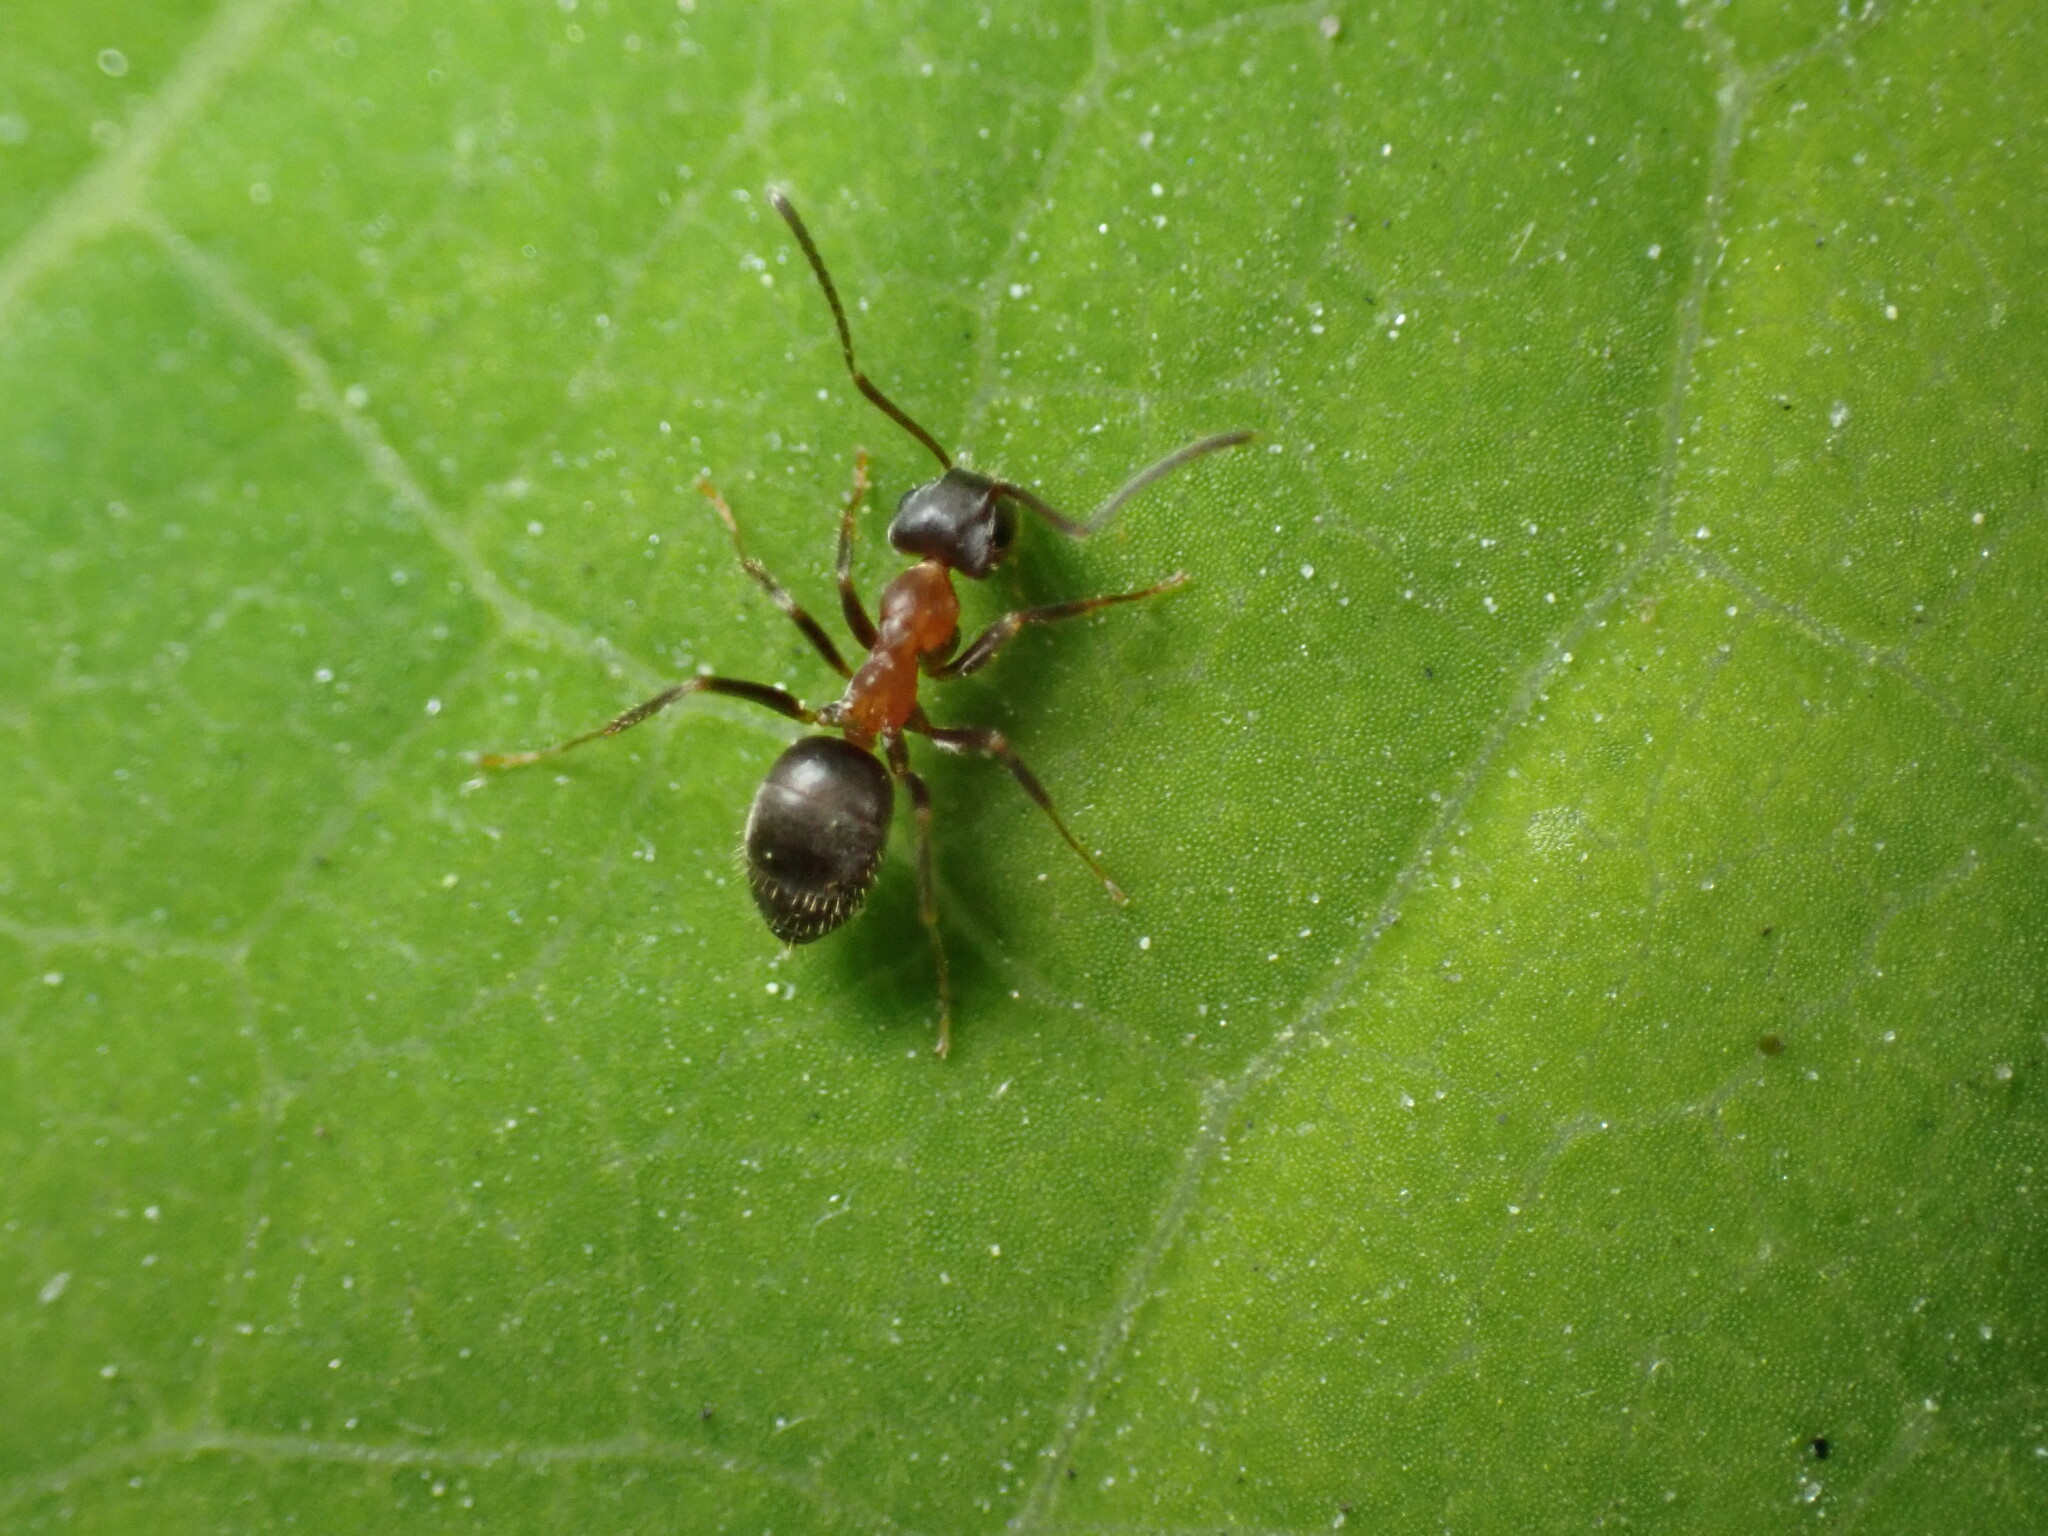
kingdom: Animalia
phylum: Arthropoda
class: Insecta
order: Hymenoptera
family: Formicidae
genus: Lasius
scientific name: Lasius emarginatus
